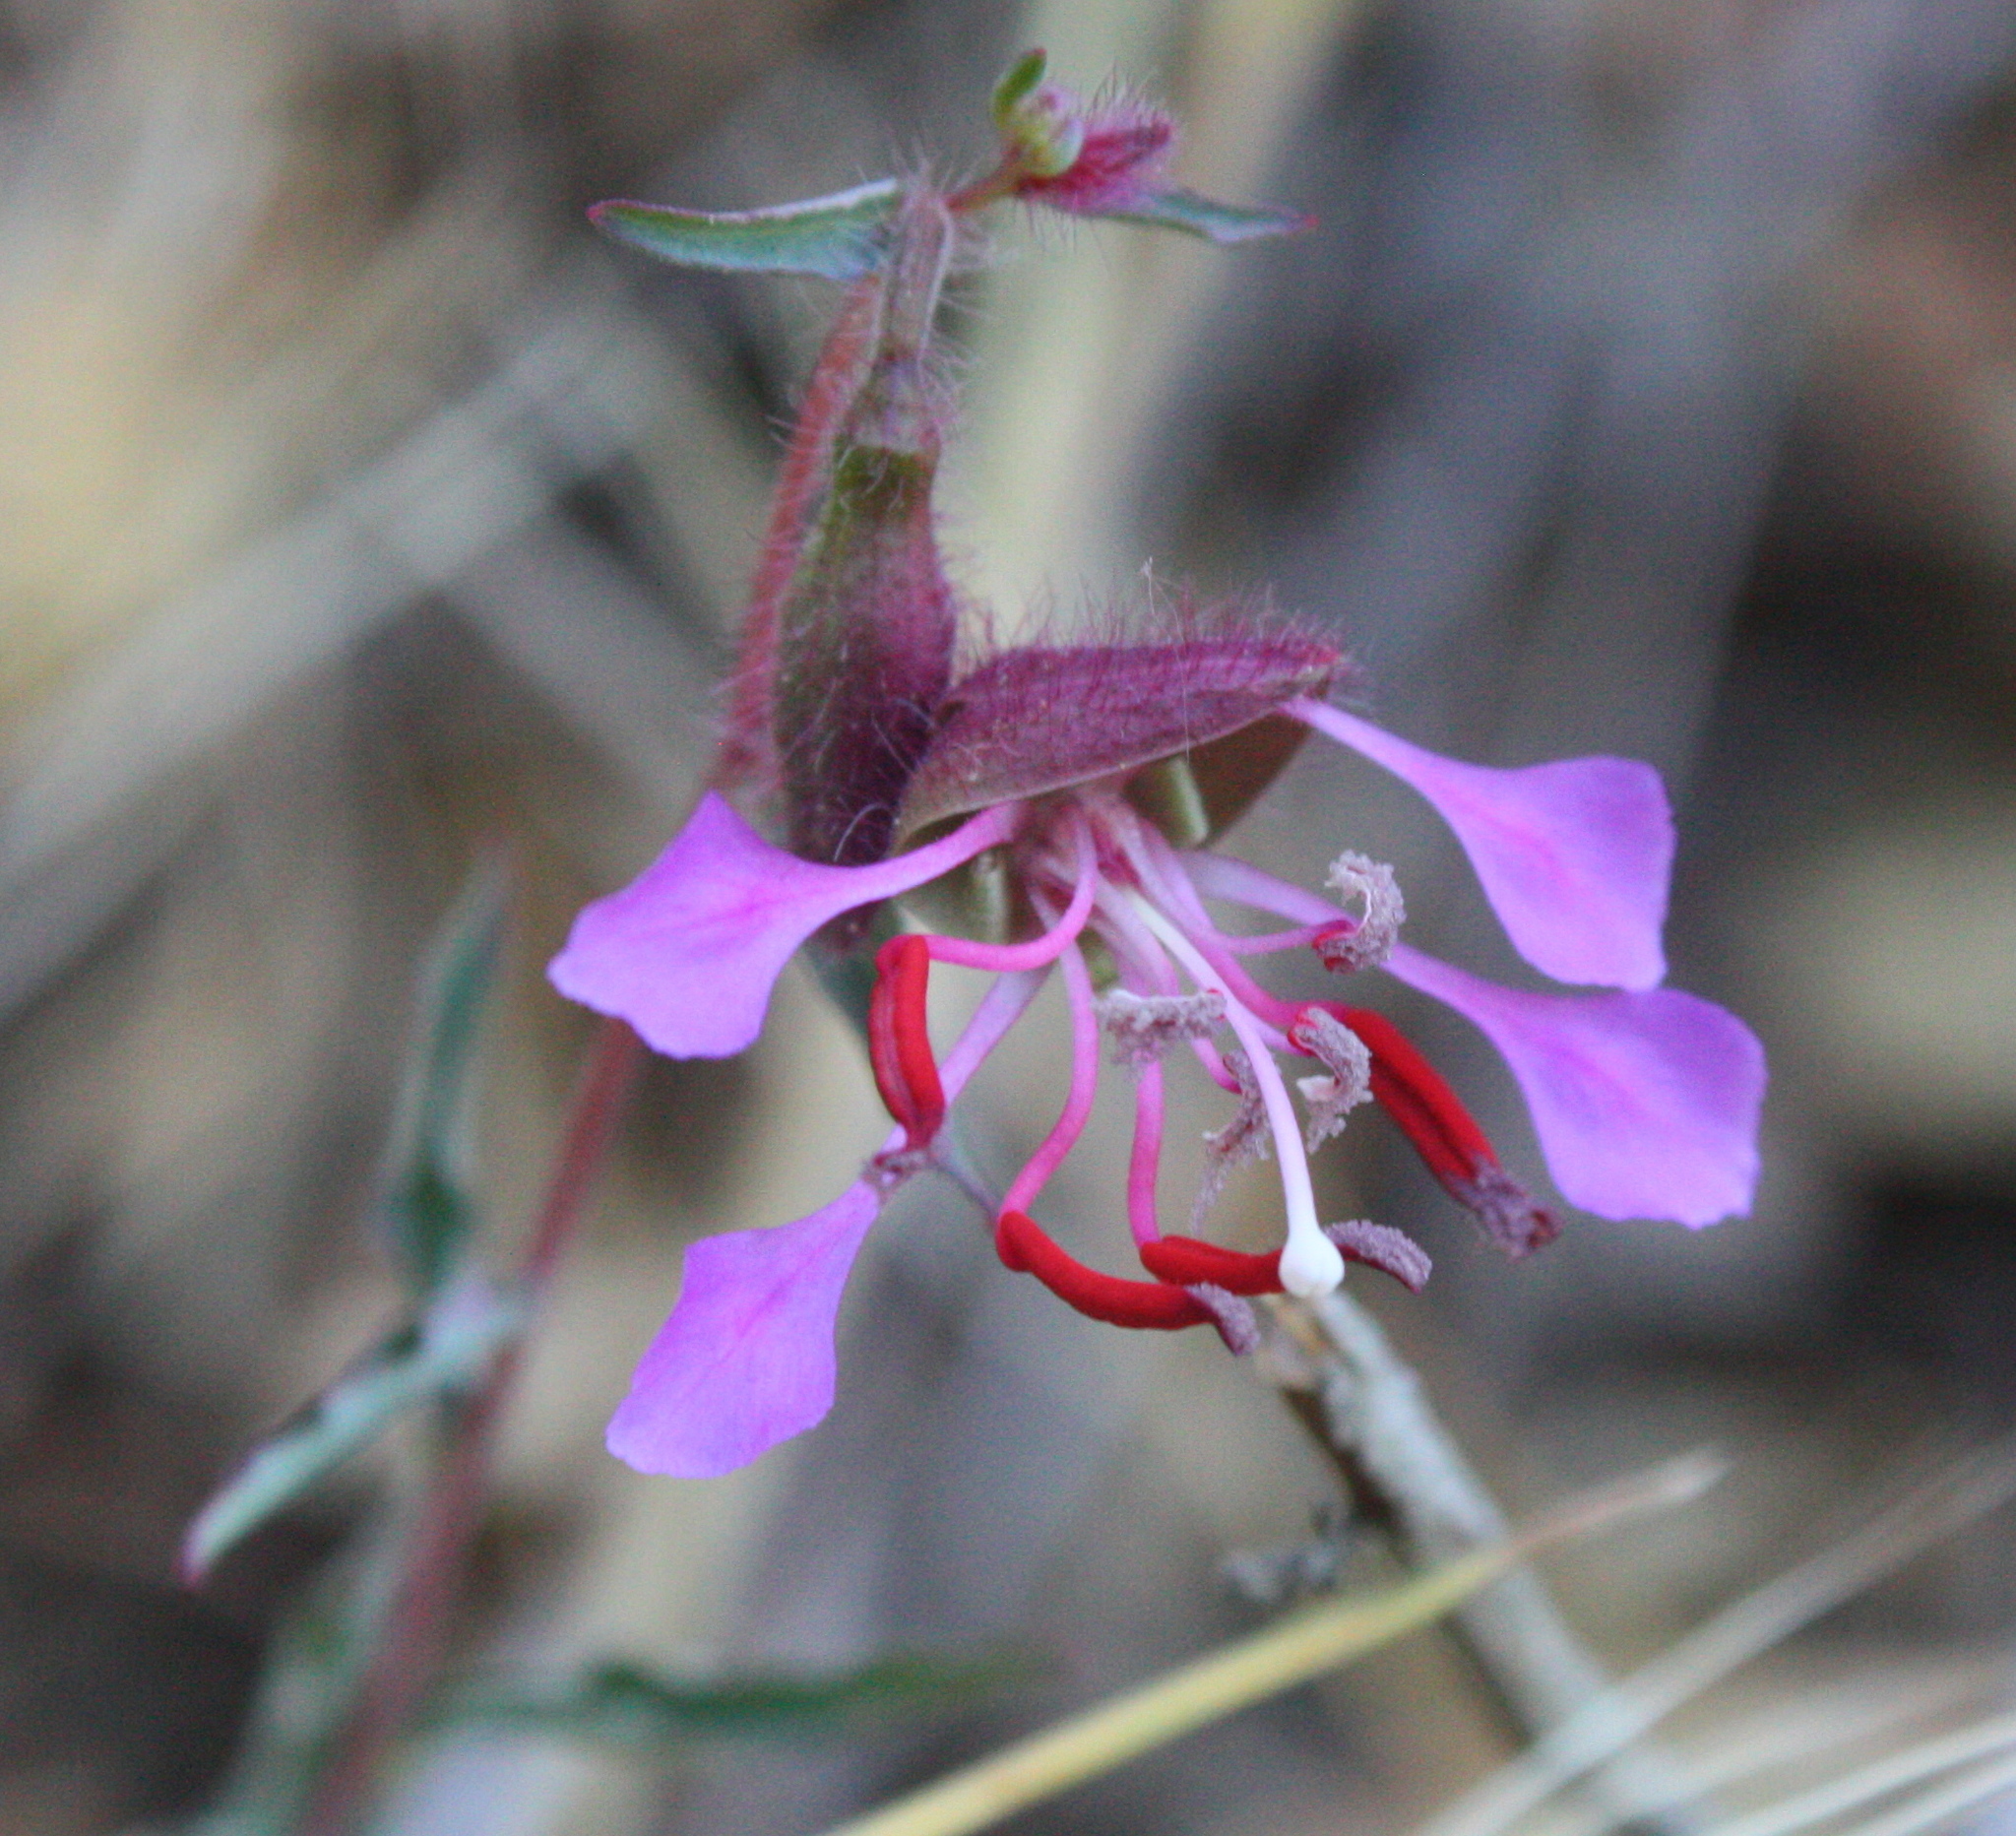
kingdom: Plantae
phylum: Tracheophyta
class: Magnoliopsida
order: Myrtales
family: Onagraceae
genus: Clarkia
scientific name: Clarkia unguiculata
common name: Clarkia
